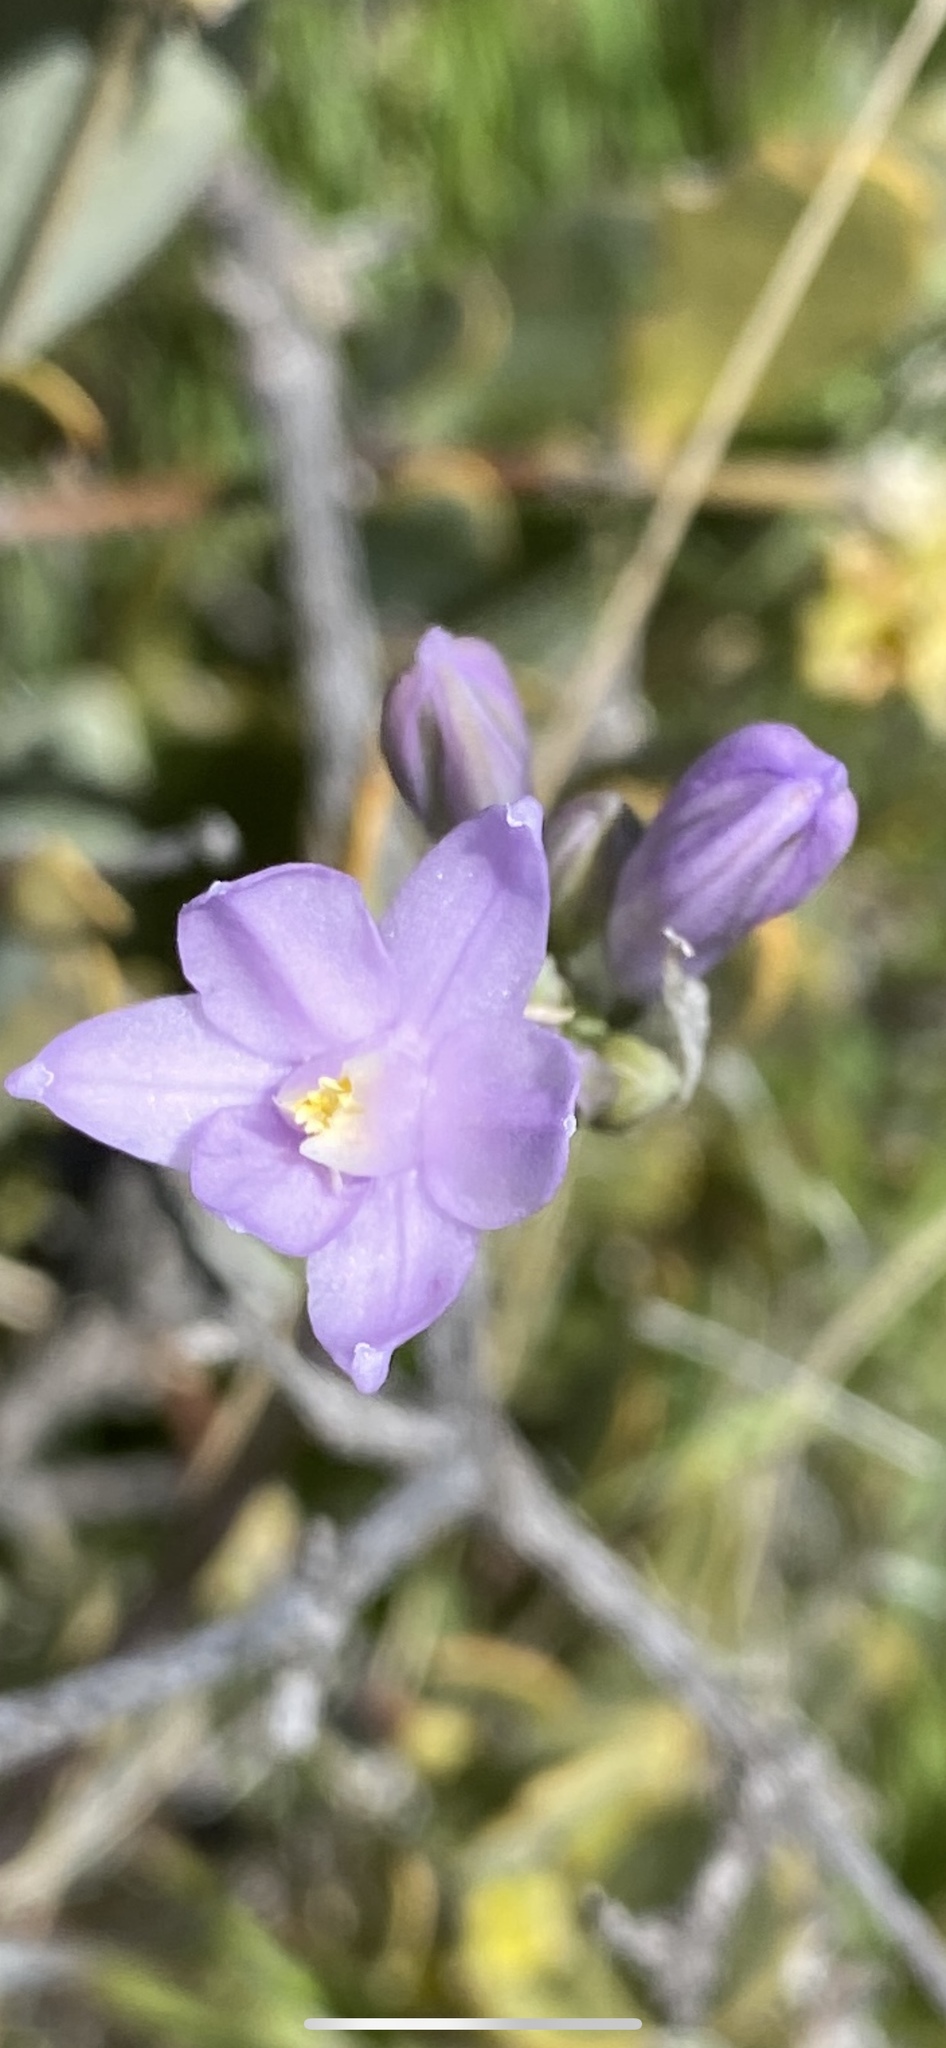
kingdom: Plantae
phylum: Tracheophyta
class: Liliopsida
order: Asparagales
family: Asparagaceae
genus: Dipterostemon
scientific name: Dipterostemon capitatus
